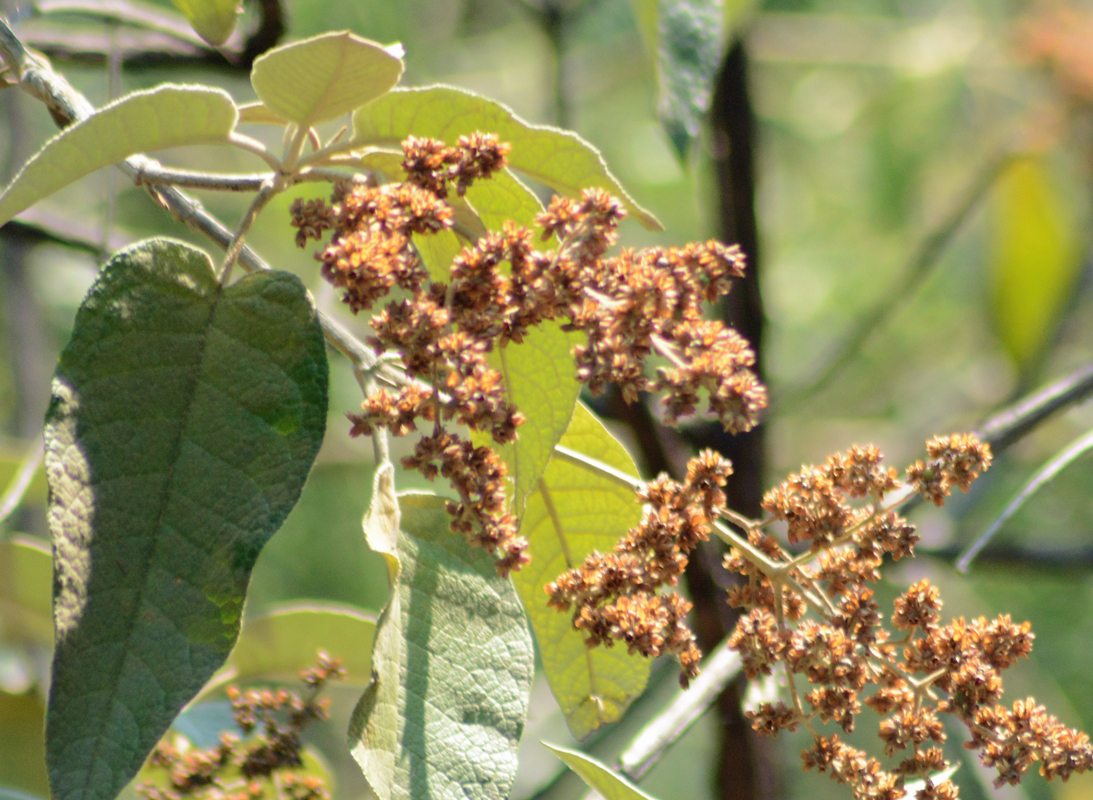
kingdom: Plantae
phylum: Tracheophyta
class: Magnoliopsida
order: Lamiales
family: Scrophulariaceae
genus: Buddleja
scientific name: Buddleja cordata
